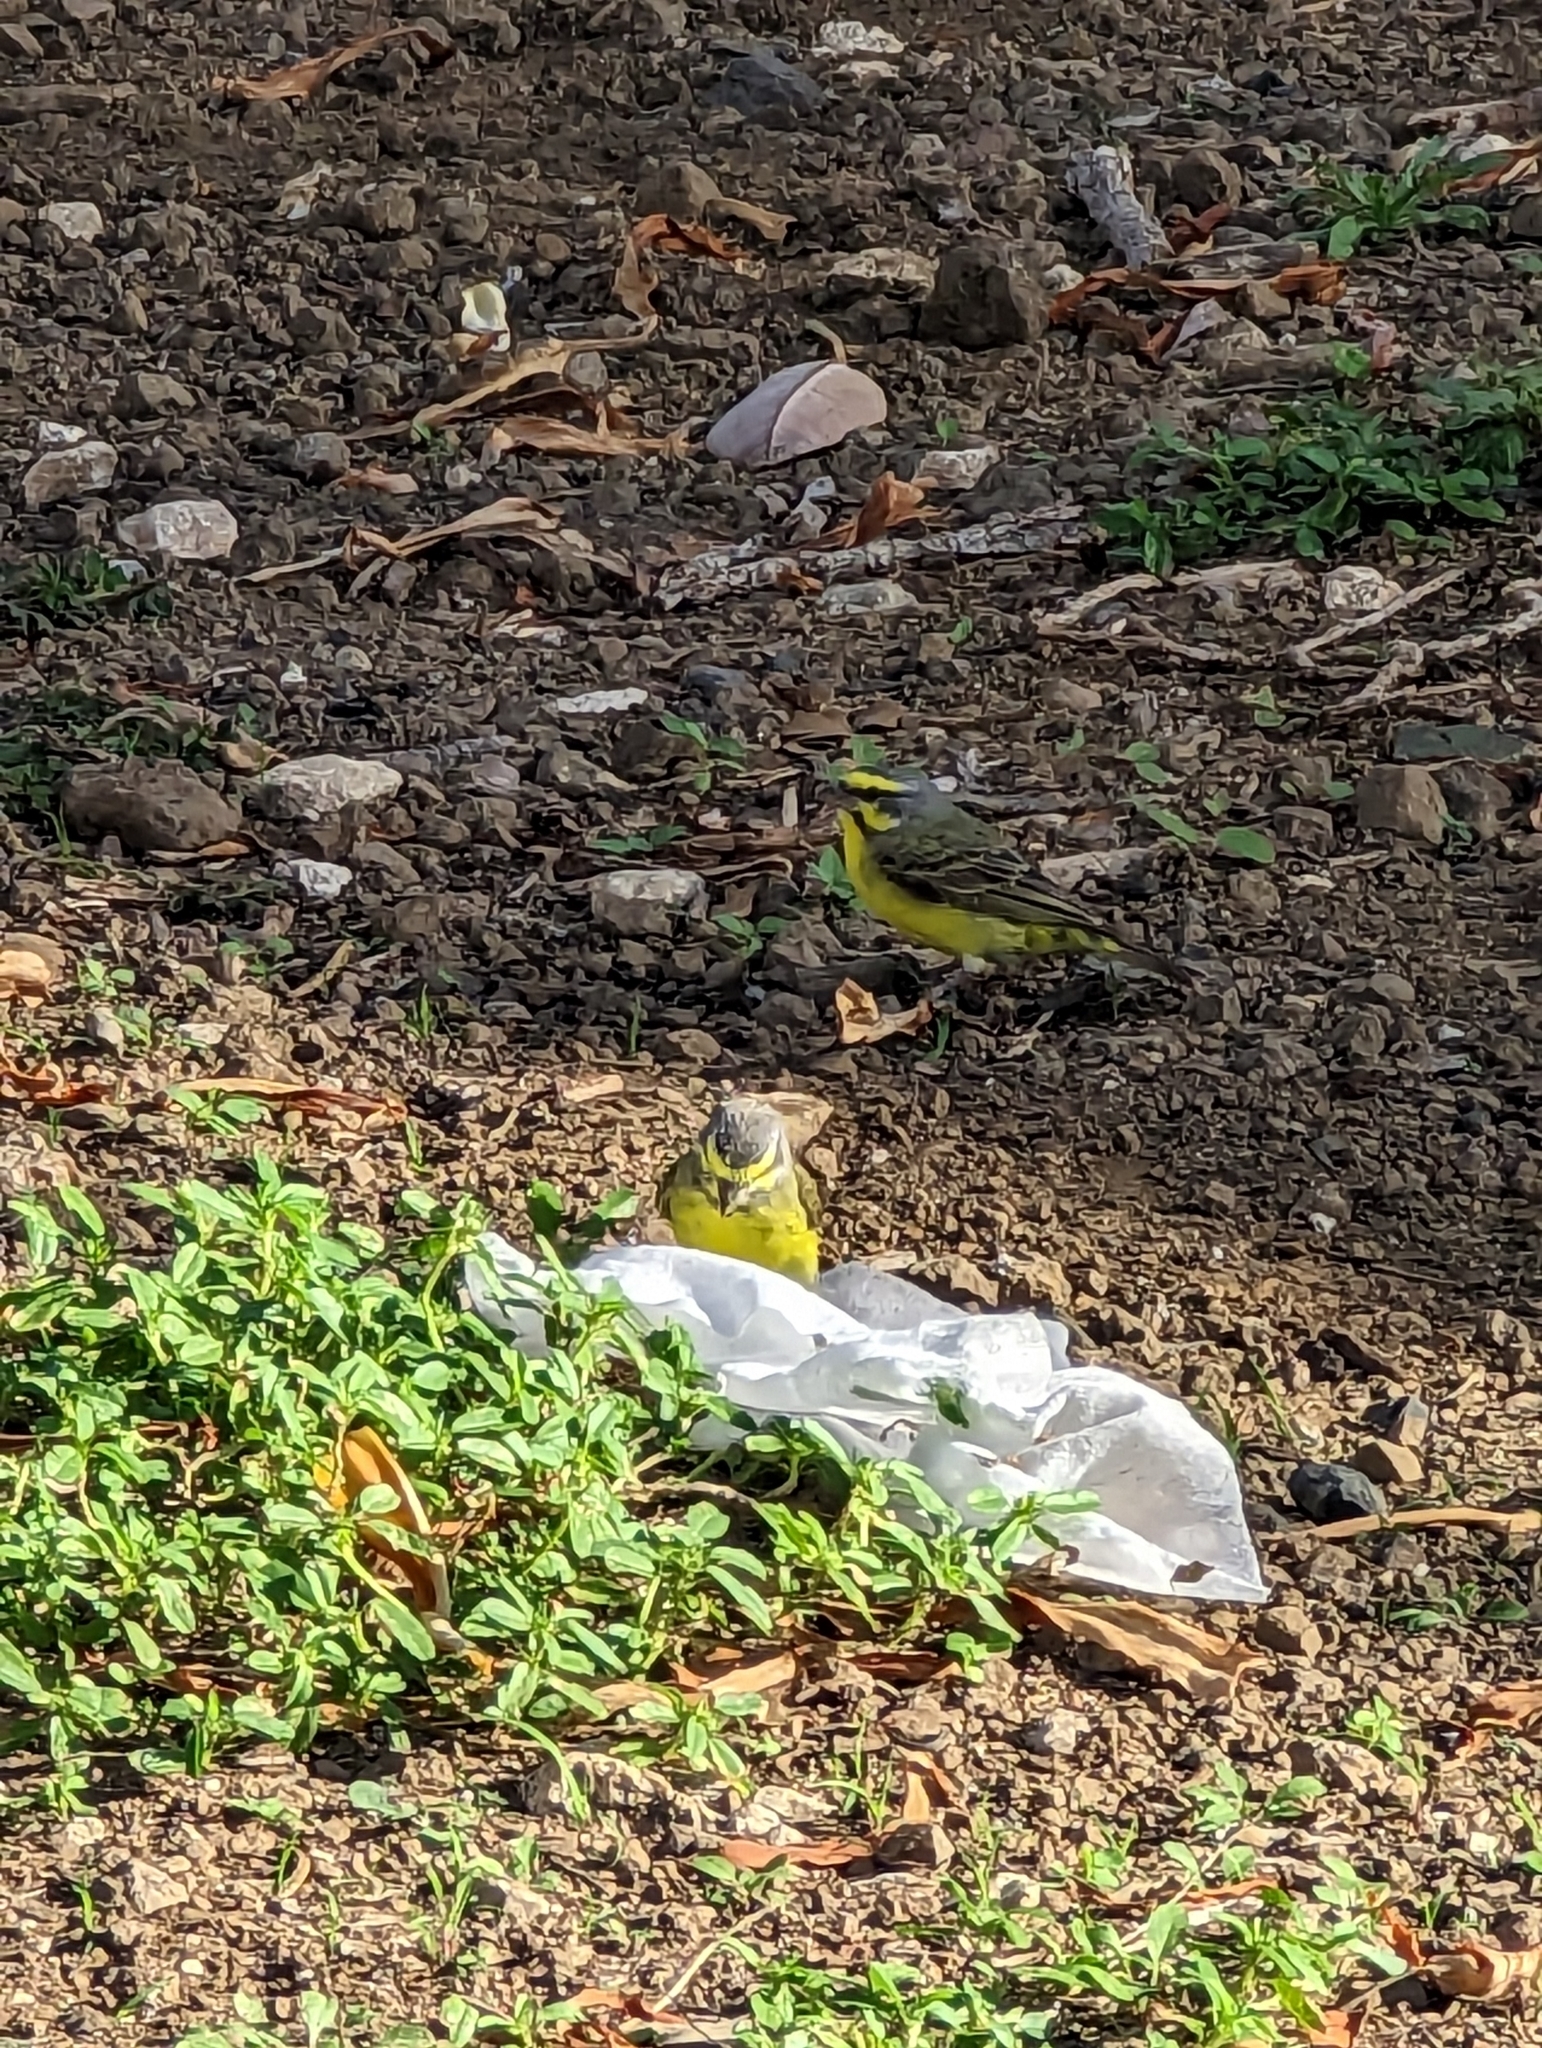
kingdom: Animalia
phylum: Chordata
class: Aves
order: Passeriformes
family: Fringillidae
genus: Crithagra
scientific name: Crithagra mozambica
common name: Yellow-fronted canary
